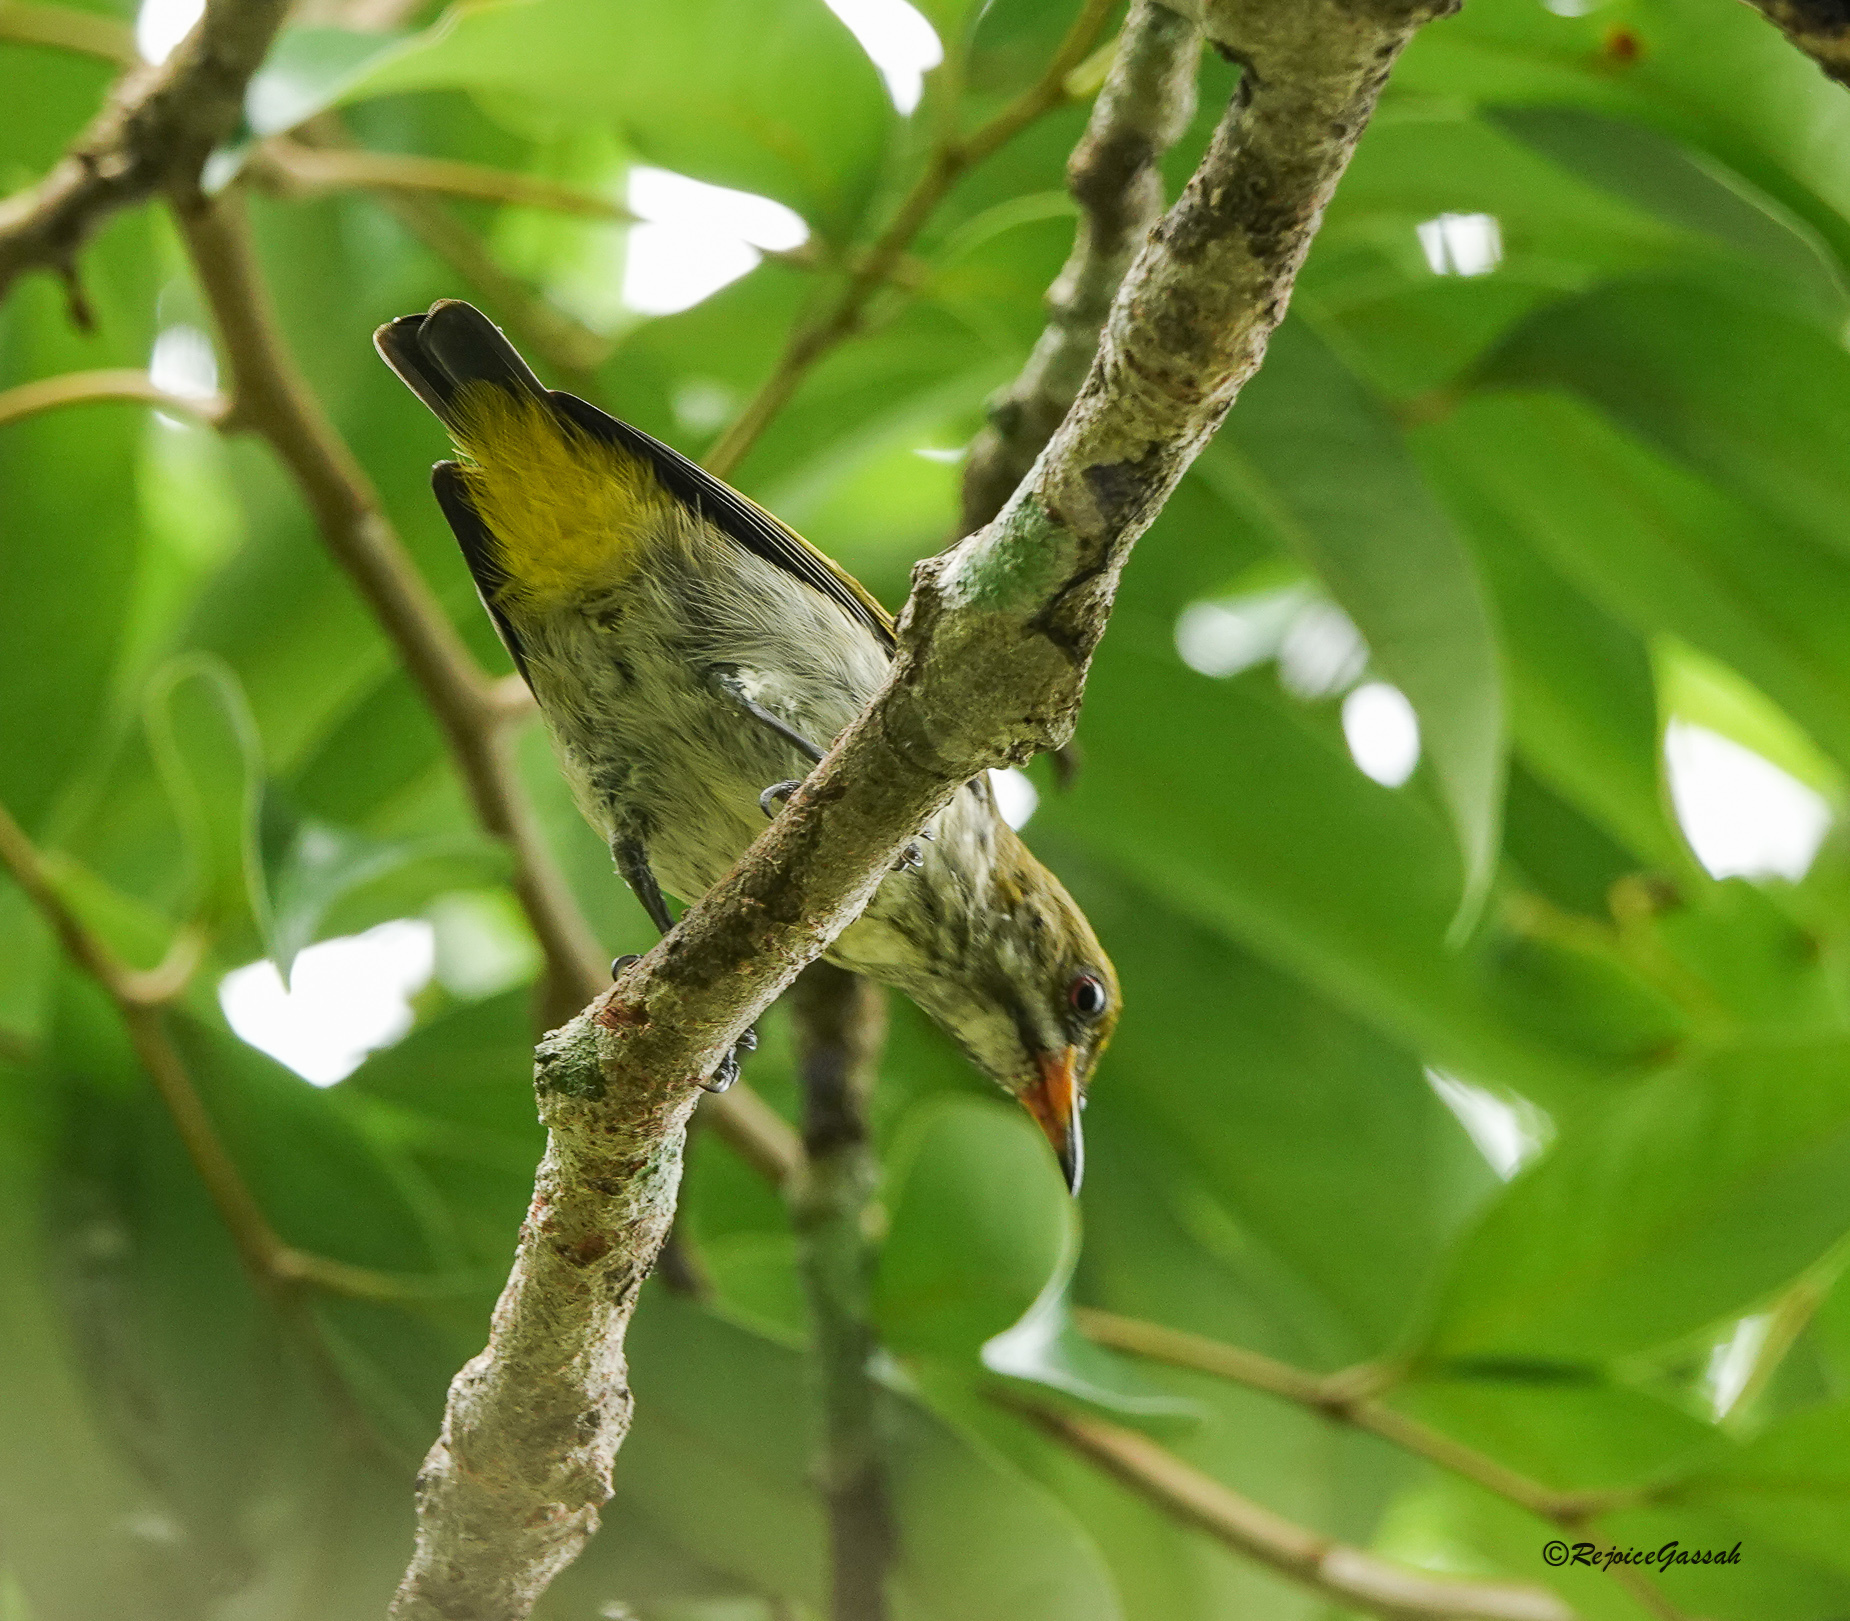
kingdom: Animalia
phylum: Chordata
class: Aves
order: Passeriformes
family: Dicaeidae
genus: Dicaeum
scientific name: Dicaeum chrysorrheum
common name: Yellow-vented flowerpecker
